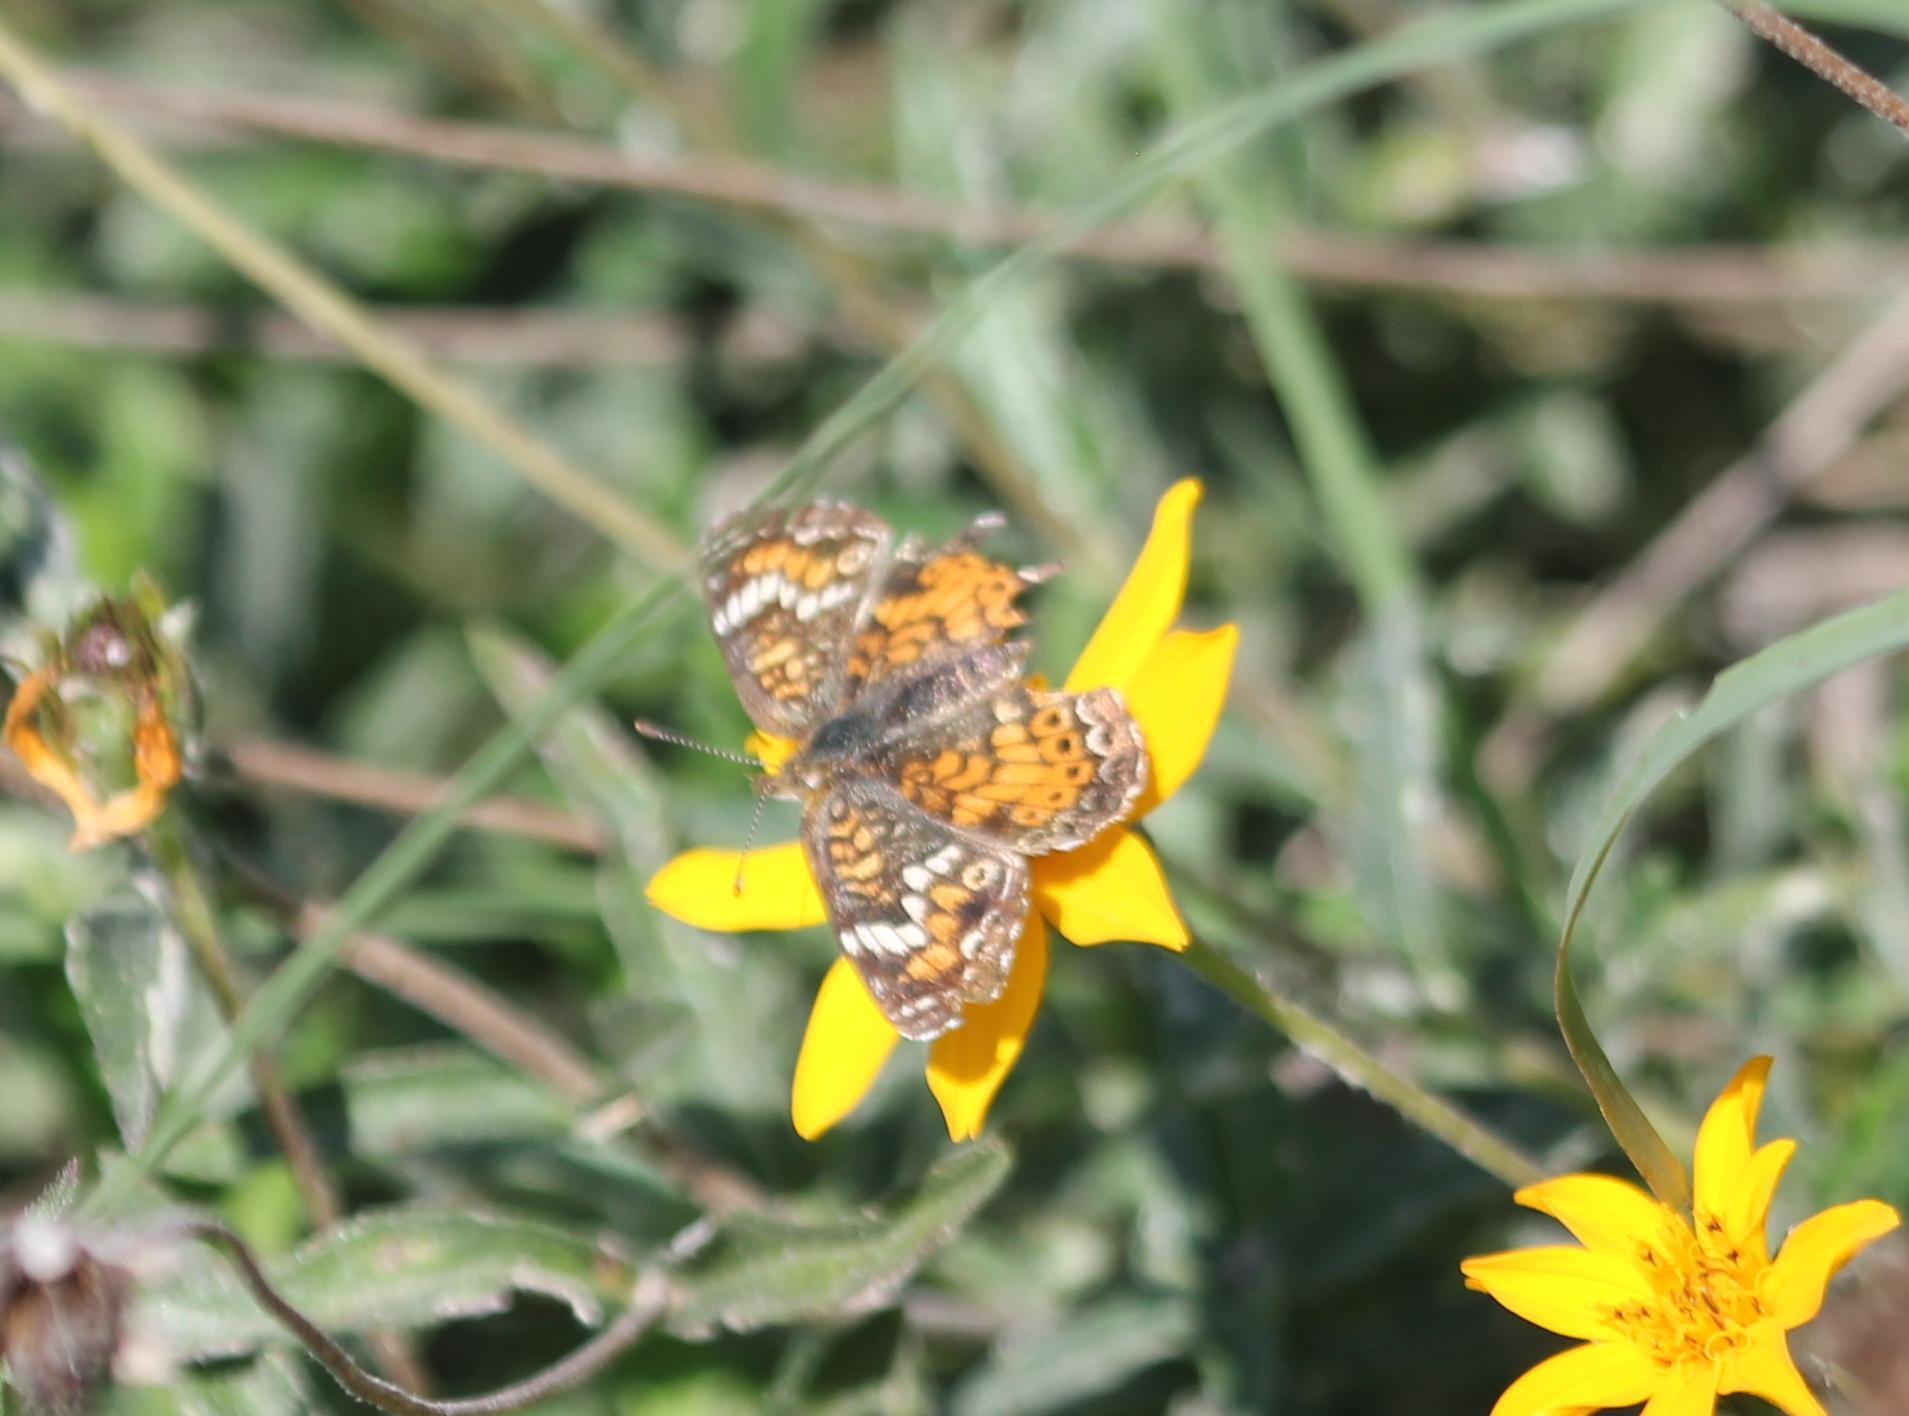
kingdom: Animalia
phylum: Arthropoda
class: Insecta
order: Lepidoptera
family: Nymphalidae
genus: Phyciodes
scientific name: Phyciodes phaon
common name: Phaon crescent
